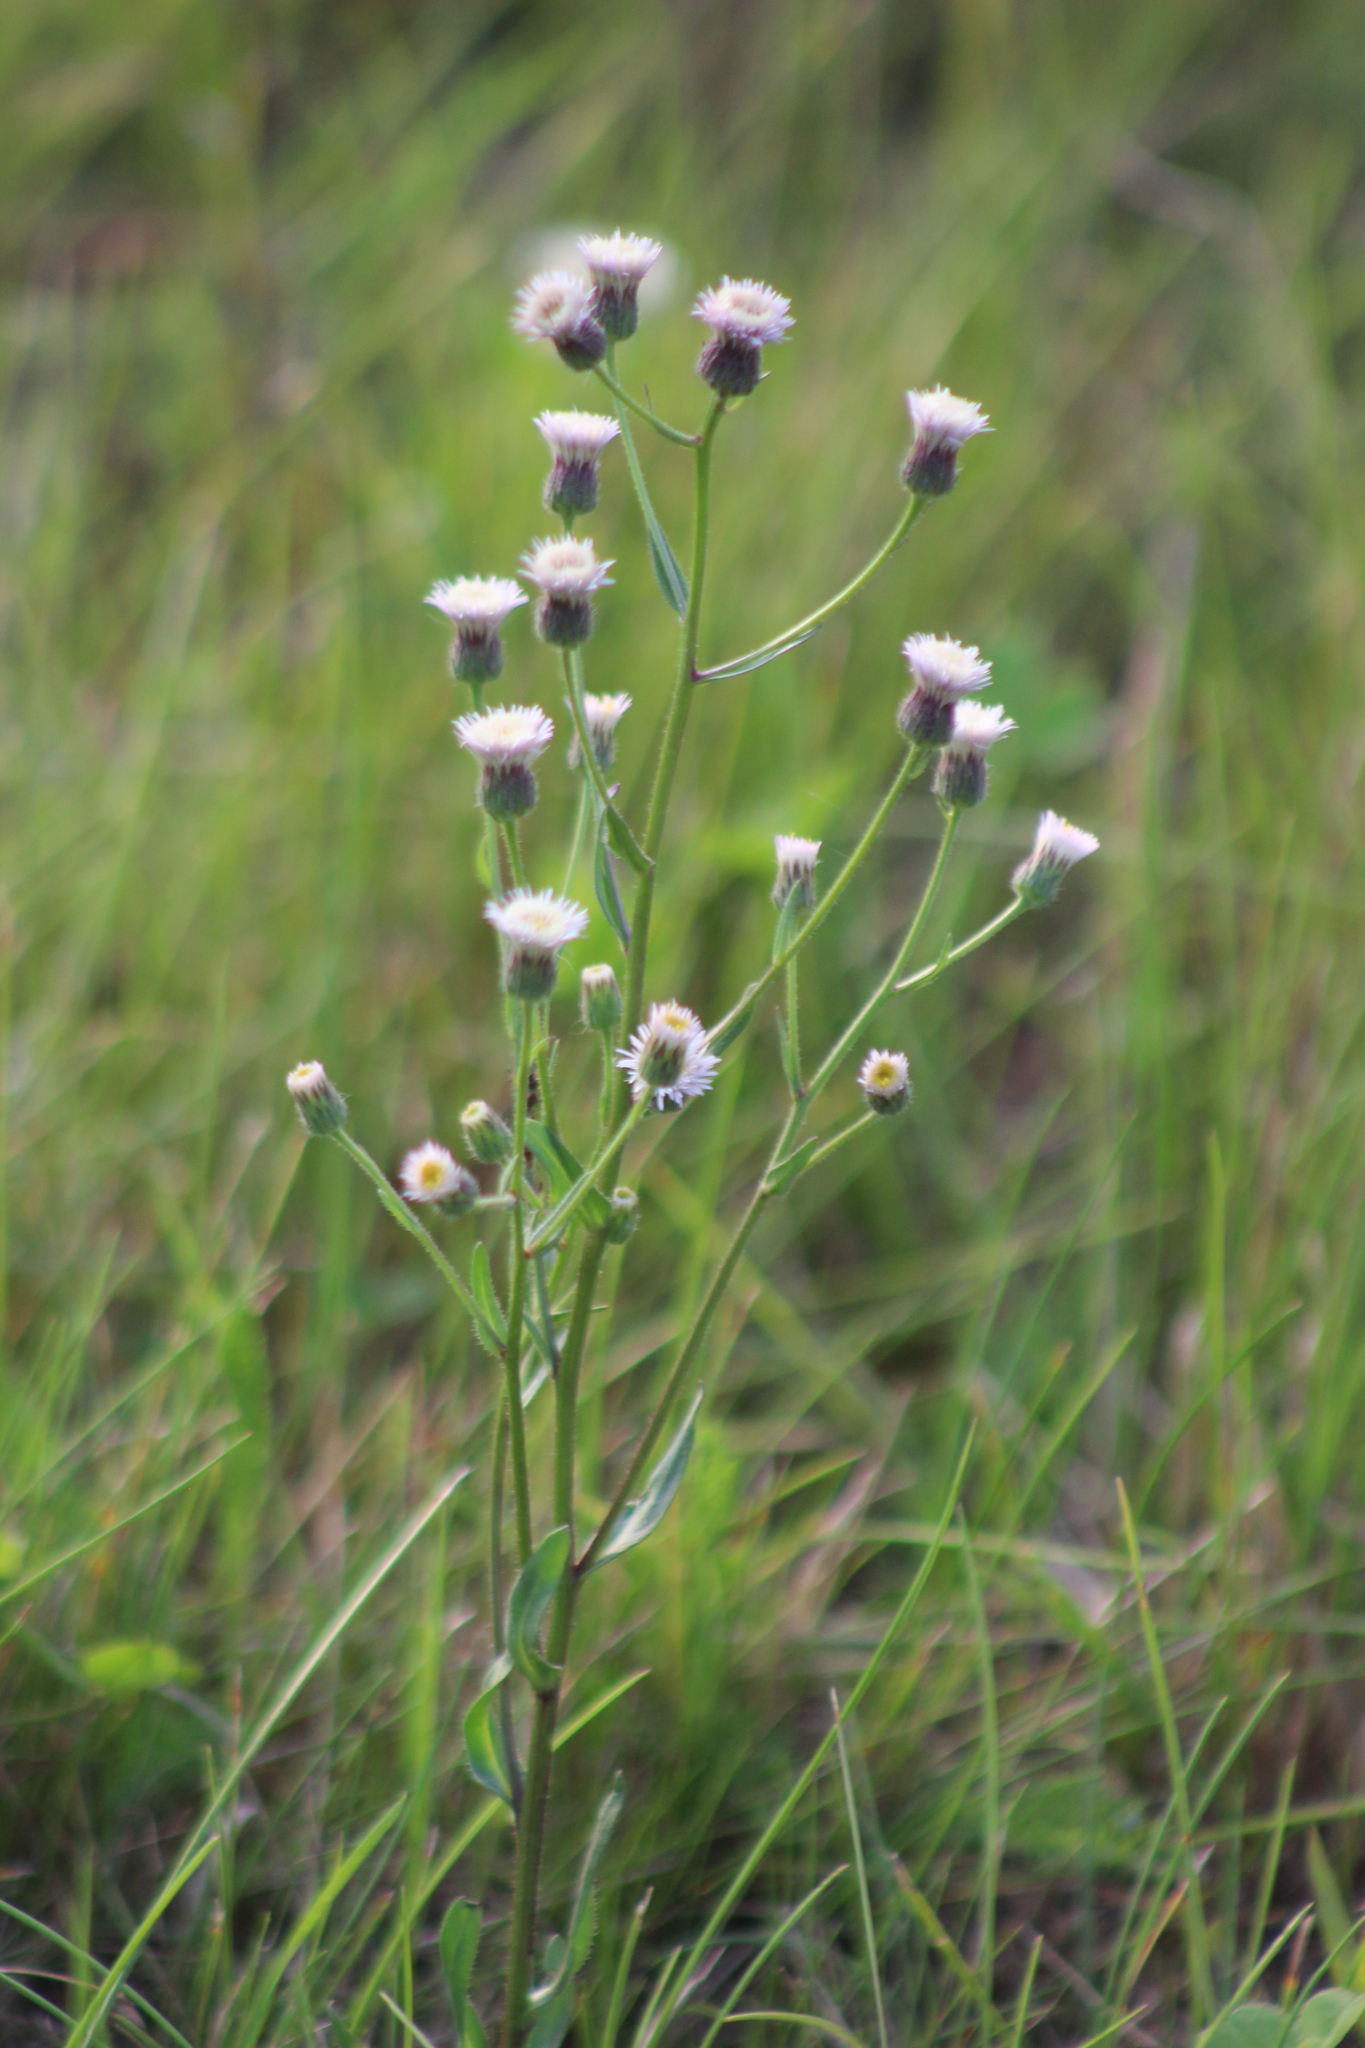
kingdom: Plantae
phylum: Tracheophyta
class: Magnoliopsida
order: Asterales
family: Asteraceae
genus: Erigeron
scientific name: Erigeron acris
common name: Blue fleabane
